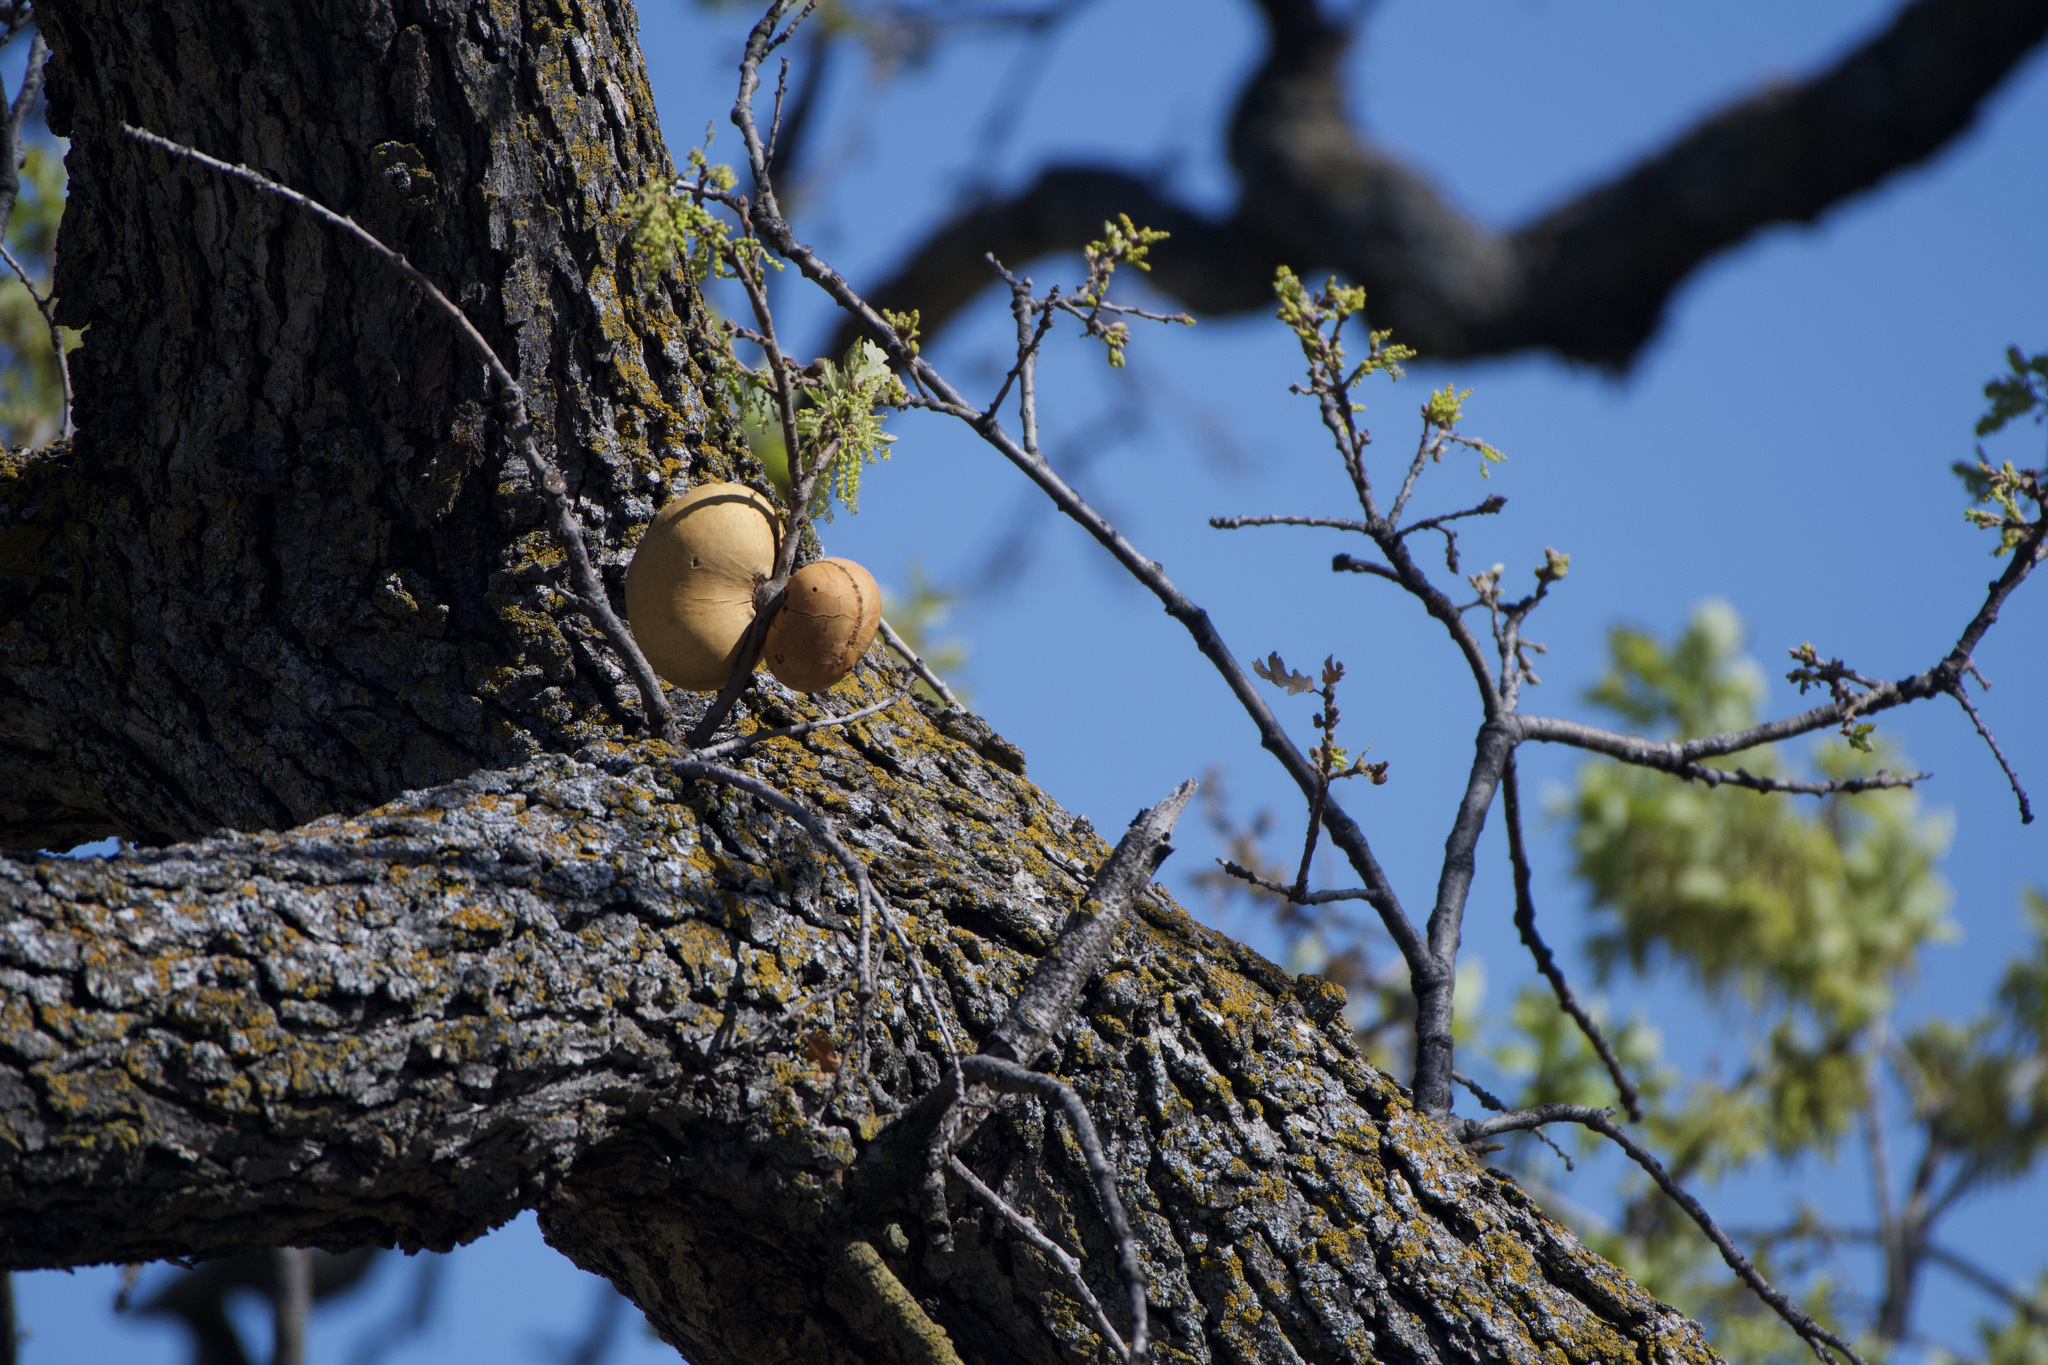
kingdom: Animalia
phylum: Arthropoda
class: Insecta
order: Hymenoptera
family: Cynipidae
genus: Andricus
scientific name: Andricus quercuscalifornicus
